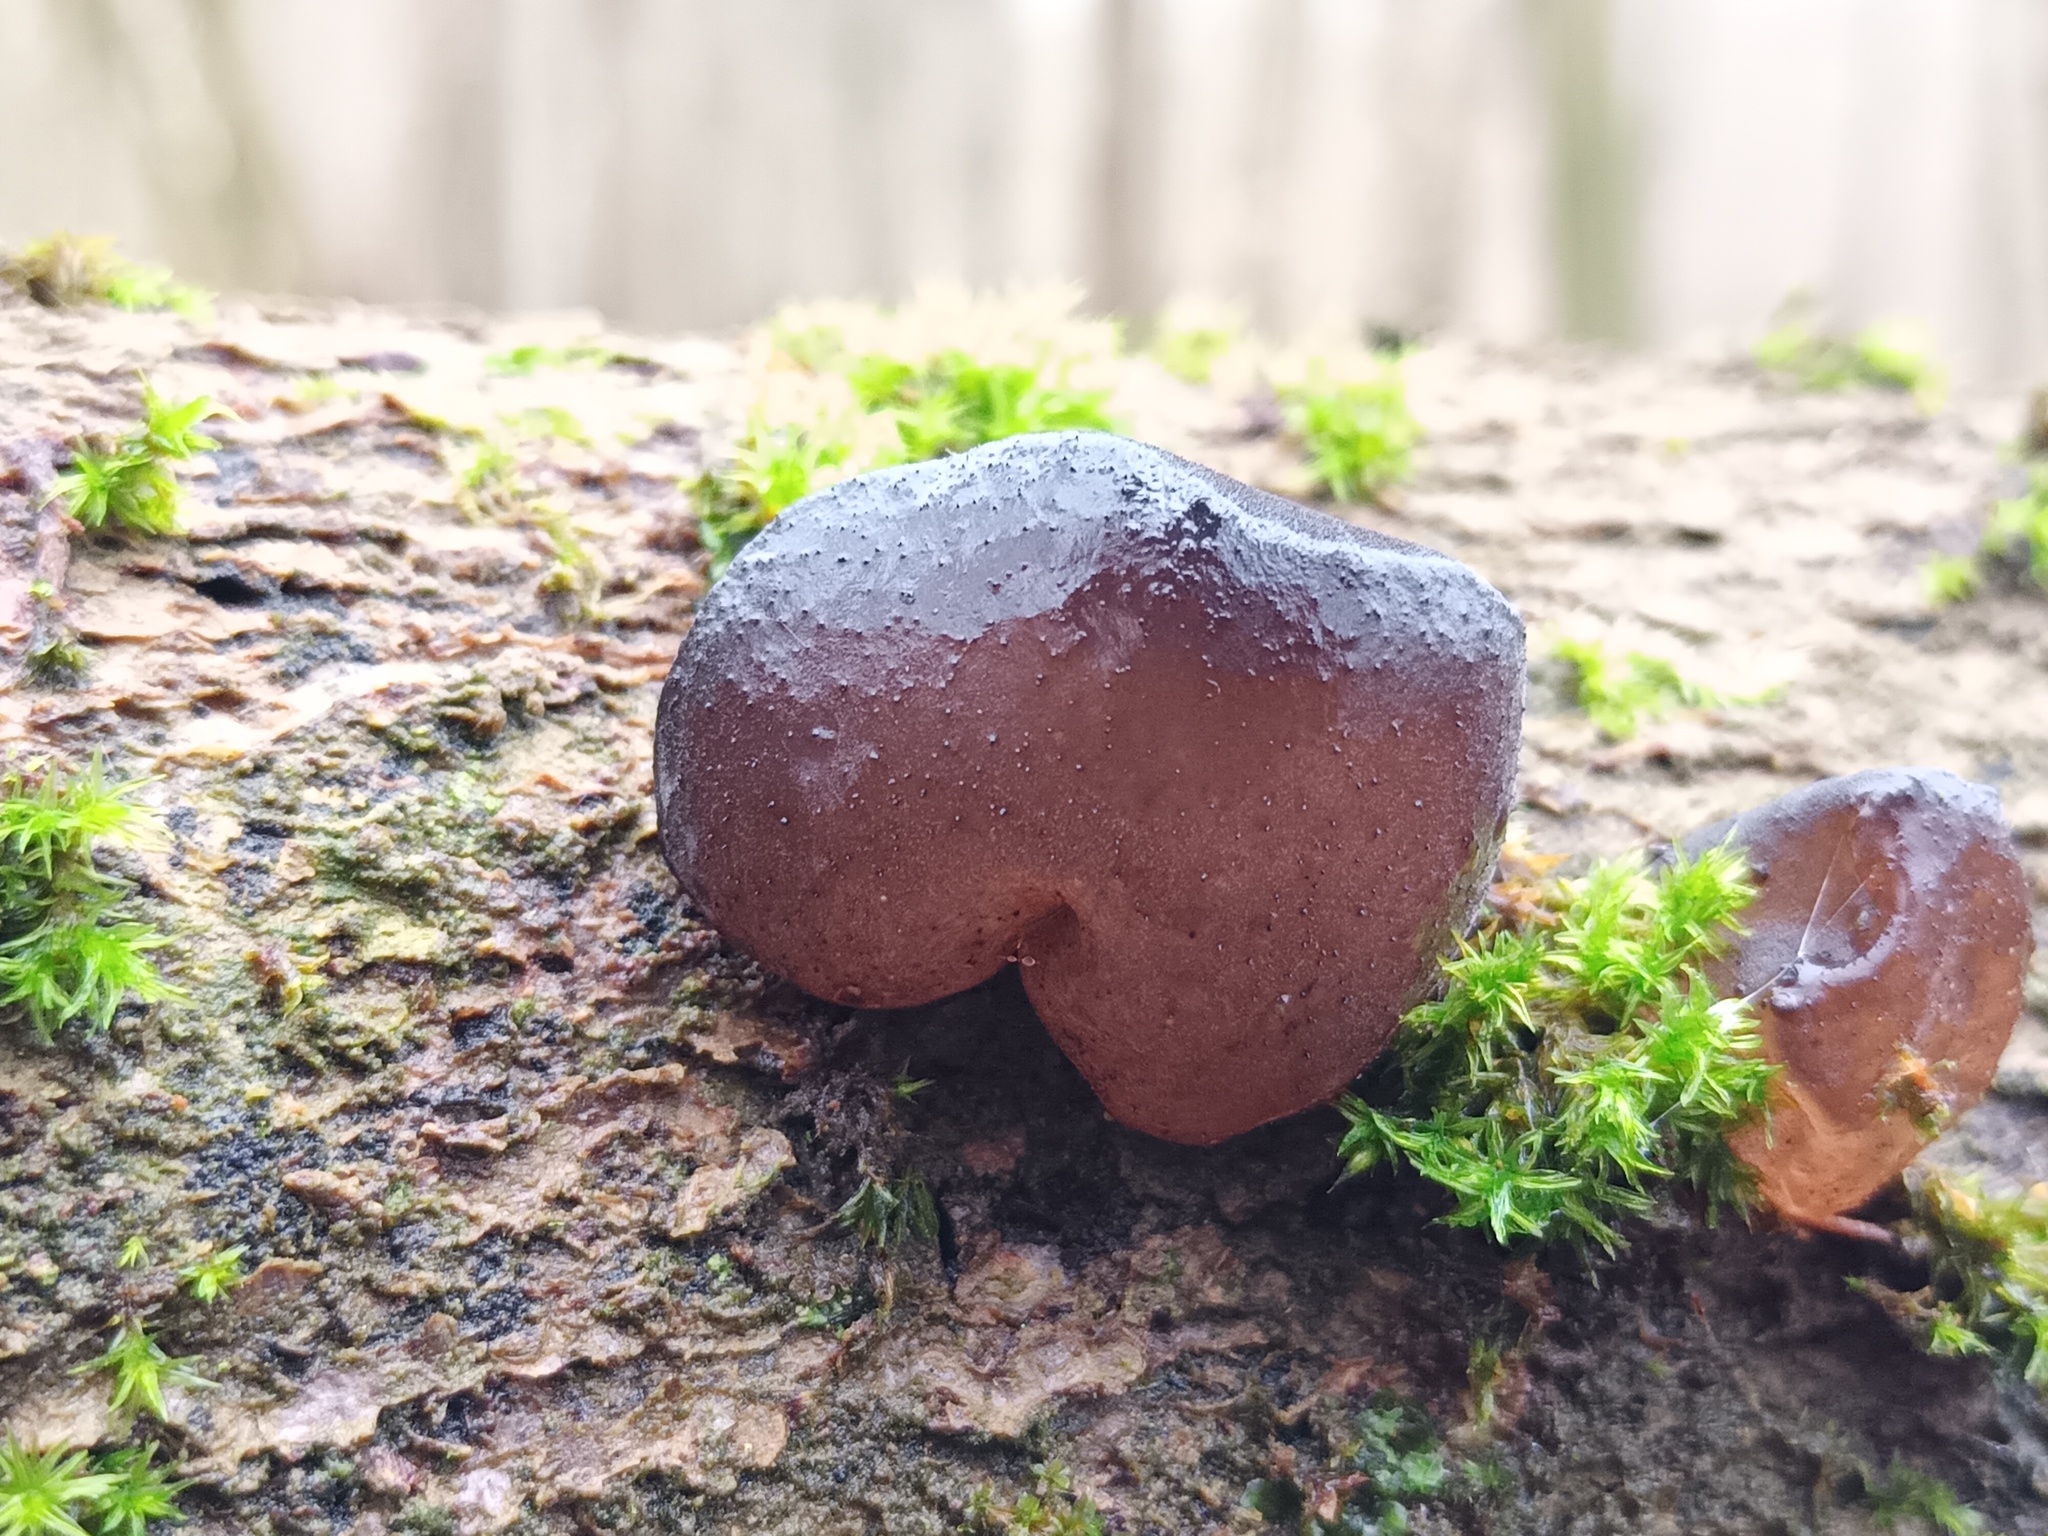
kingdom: Fungi
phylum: Basidiomycota
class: Agaricomycetes
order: Auriculariales
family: Auriculariaceae
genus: Exidia
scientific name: Exidia glandulosa
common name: Witches' butter
